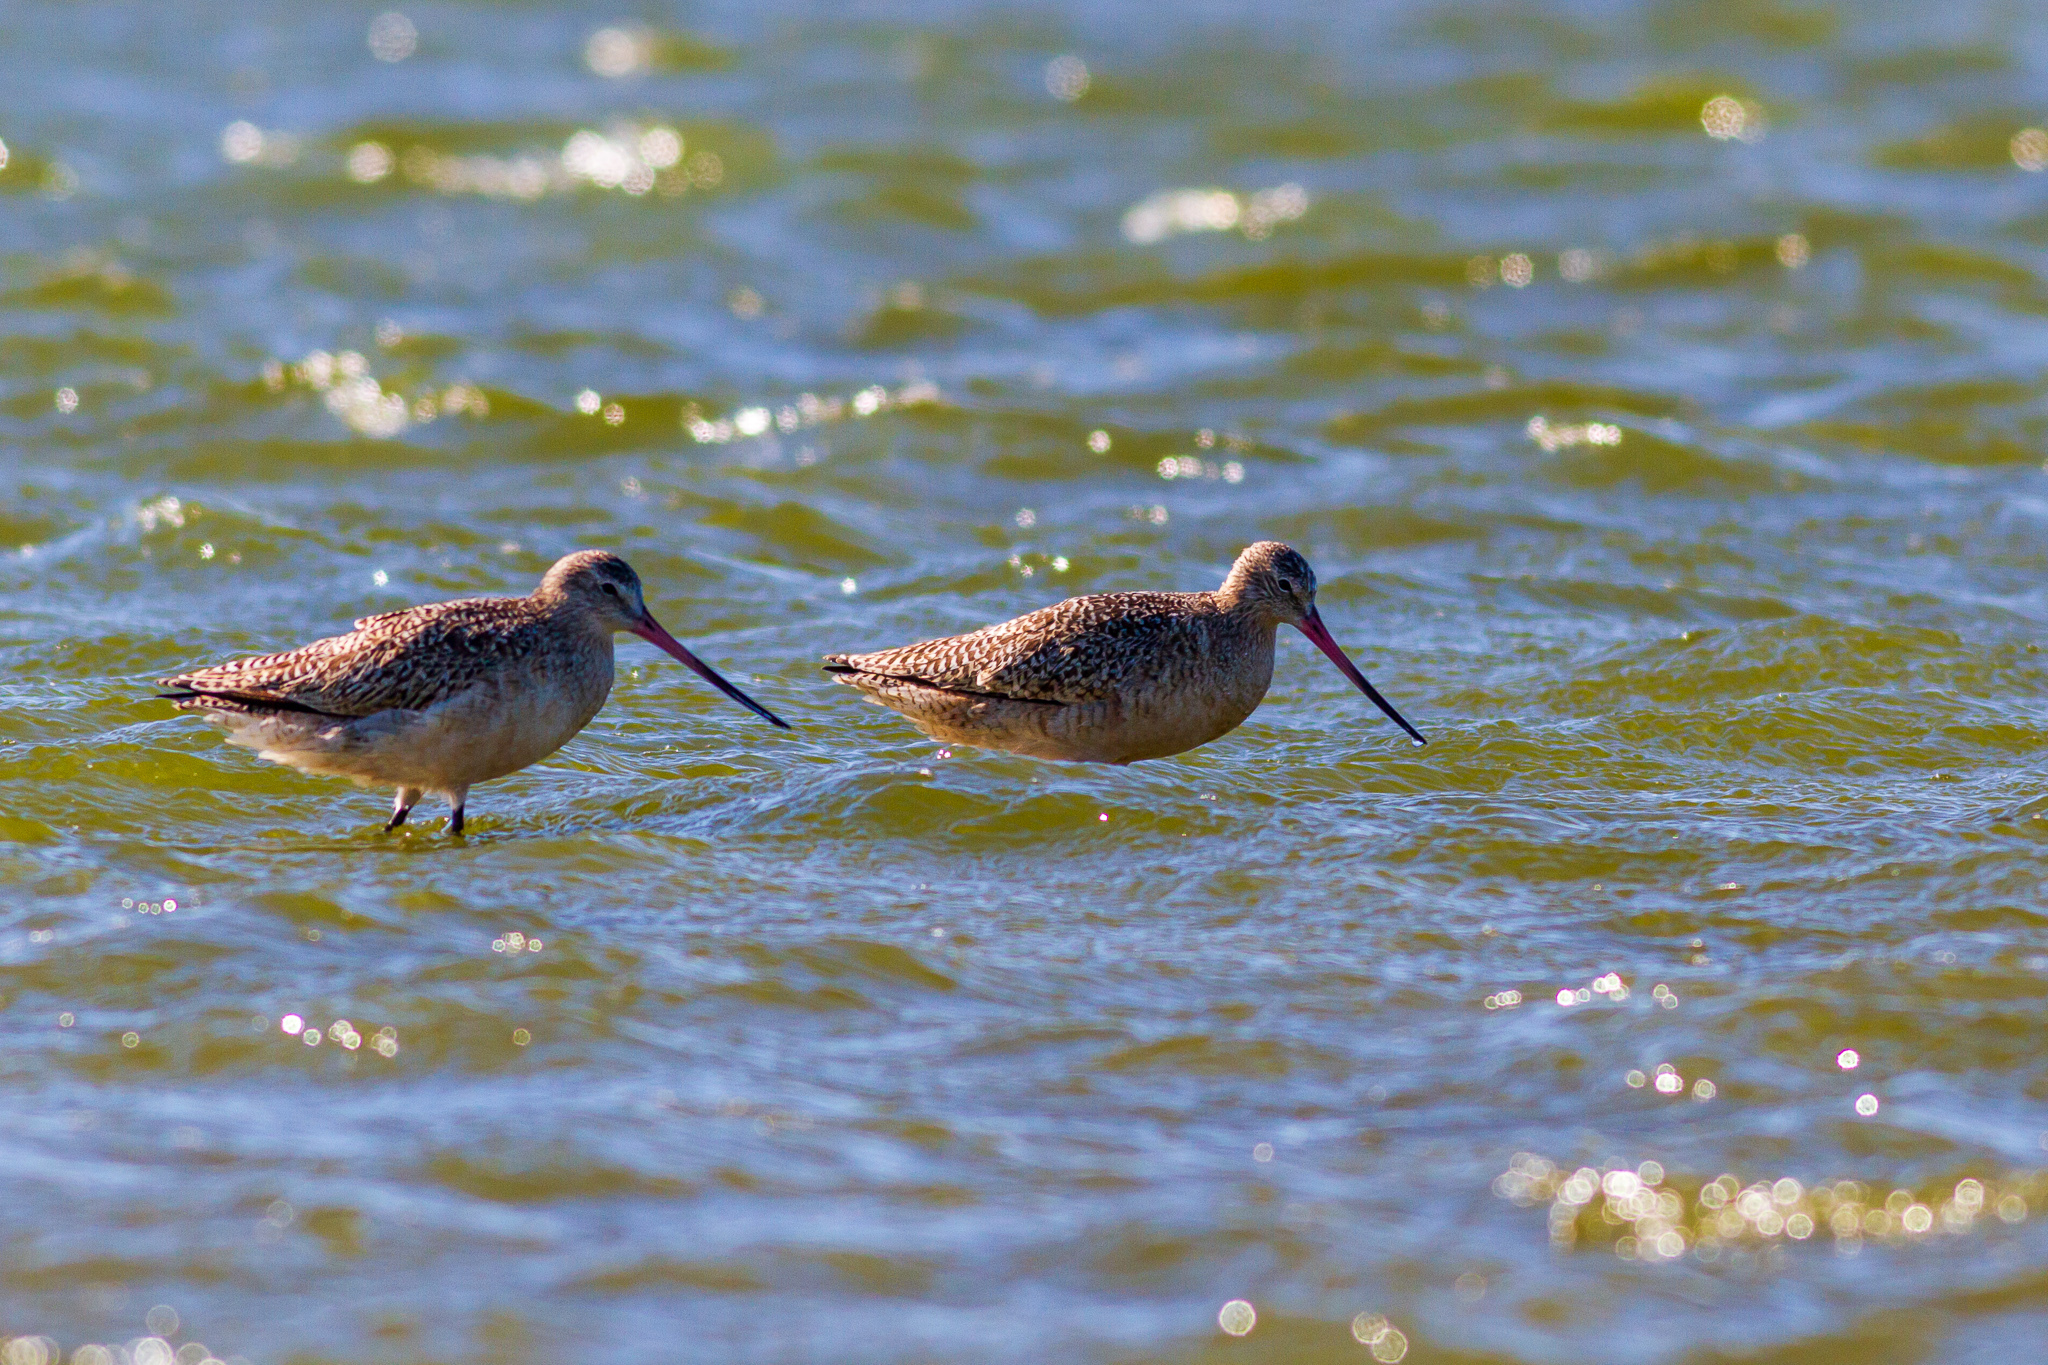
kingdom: Animalia
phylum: Chordata
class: Aves
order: Charadriiformes
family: Scolopacidae
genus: Limosa
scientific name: Limosa fedoa
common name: Marbled godwit
